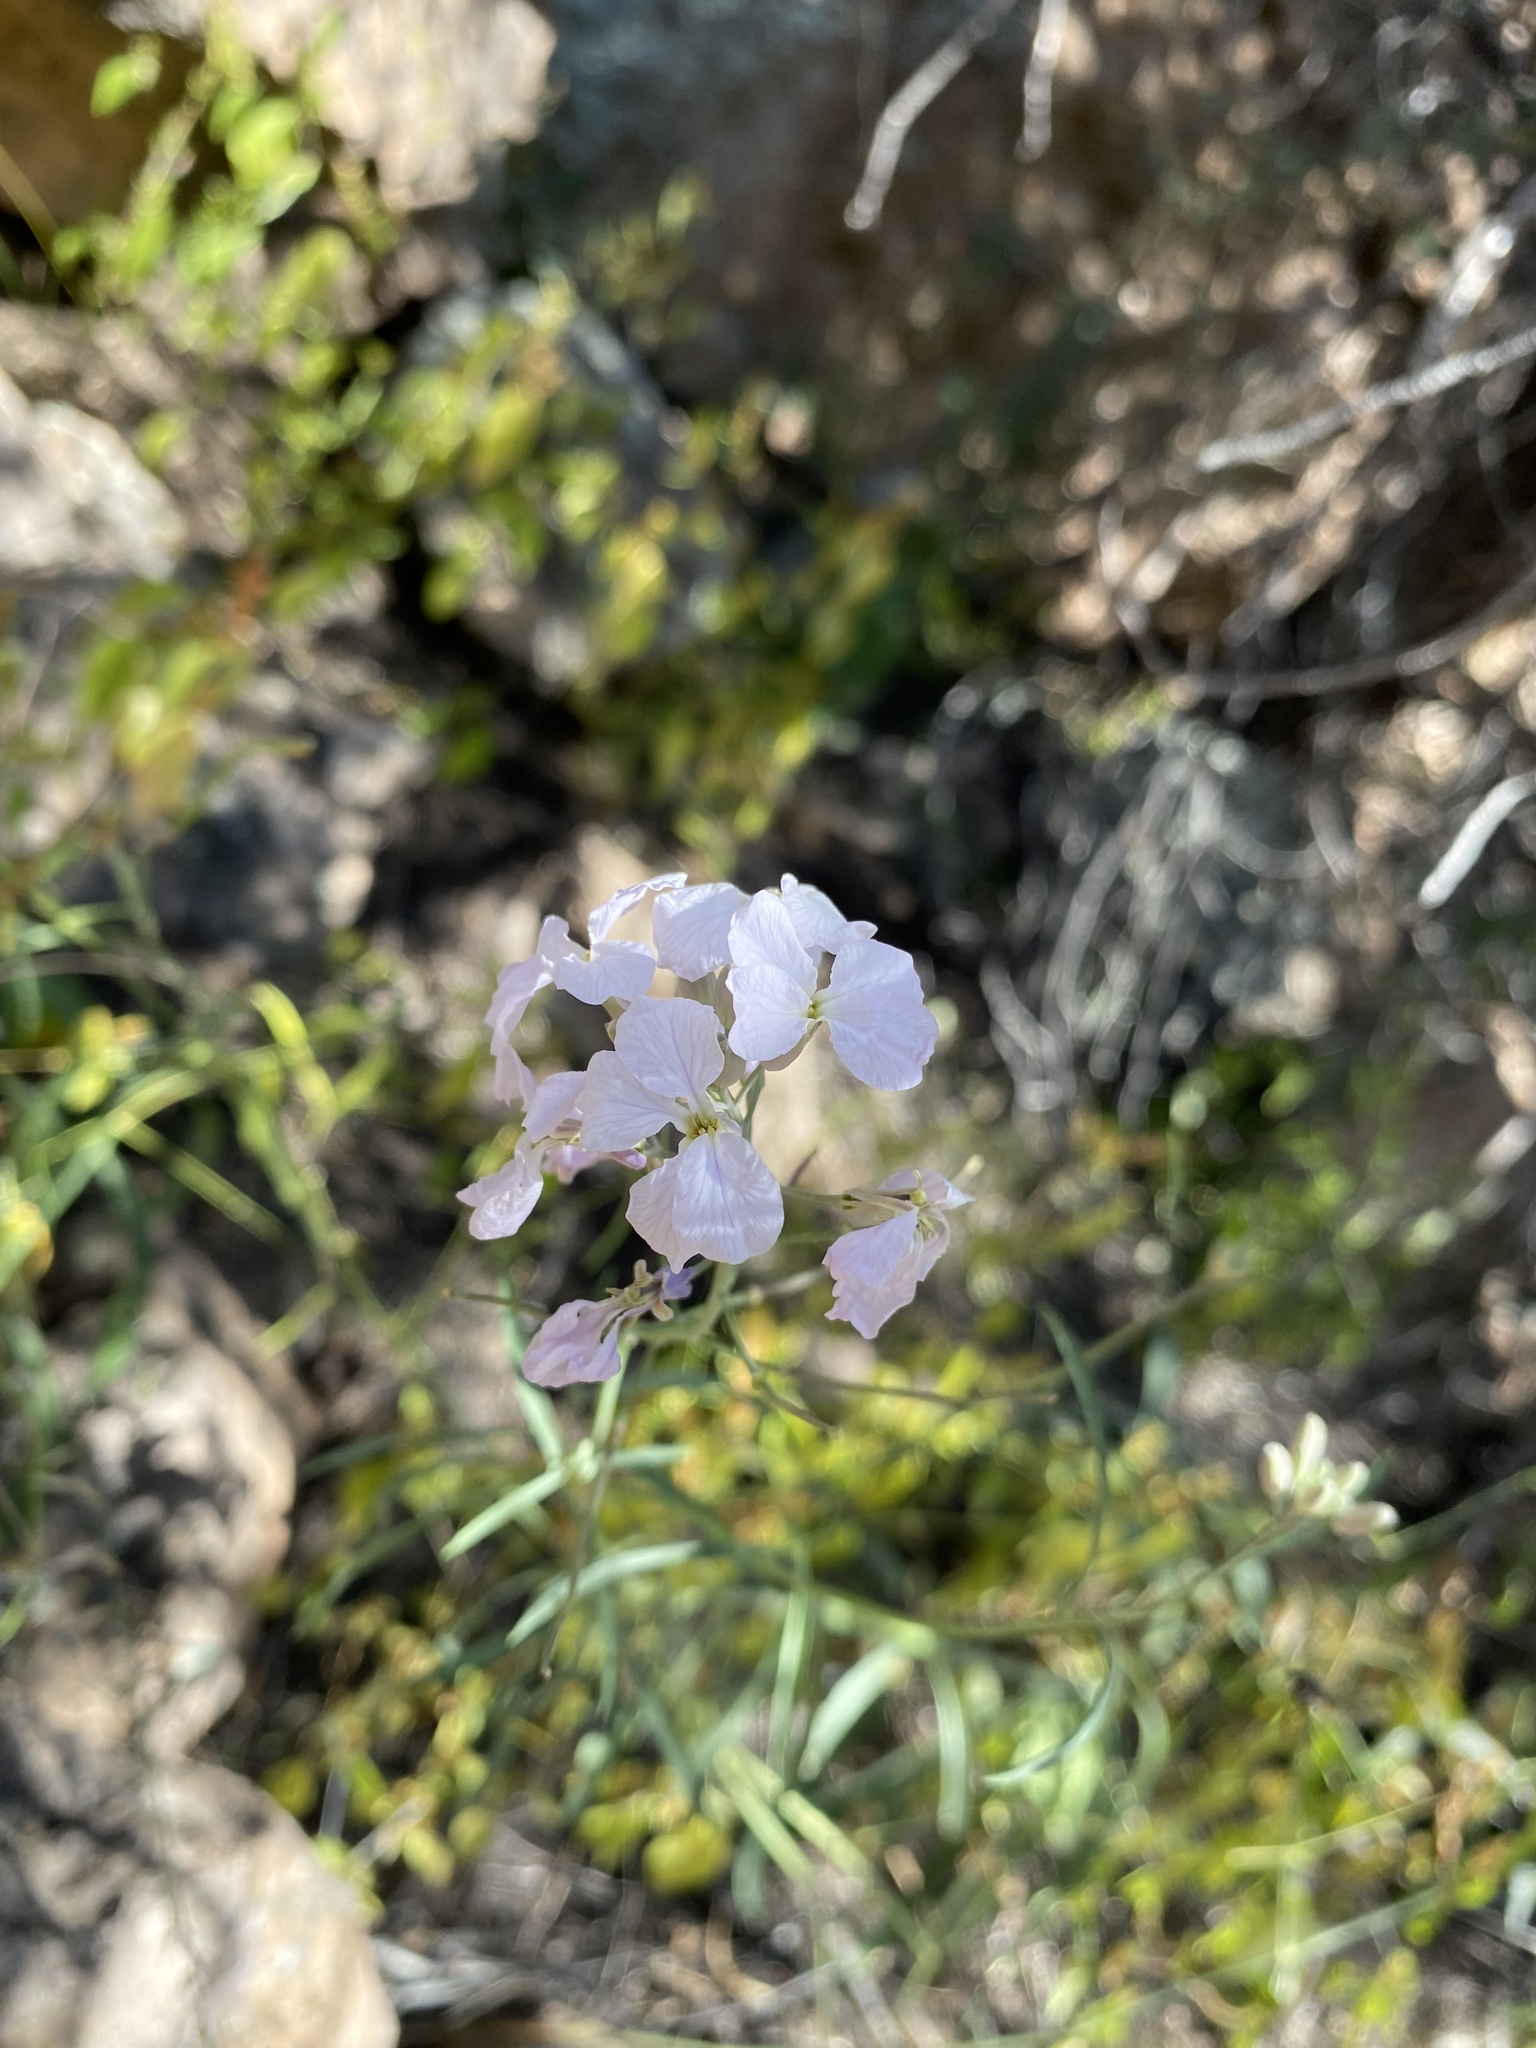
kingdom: Plantae
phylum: Tracheophyta
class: Magnoliopsida
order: Brassicales
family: Brassicaceae
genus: Hesperidanthus
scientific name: Hesperidanthus linearifolius
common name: Slim-leaf plains mustard
